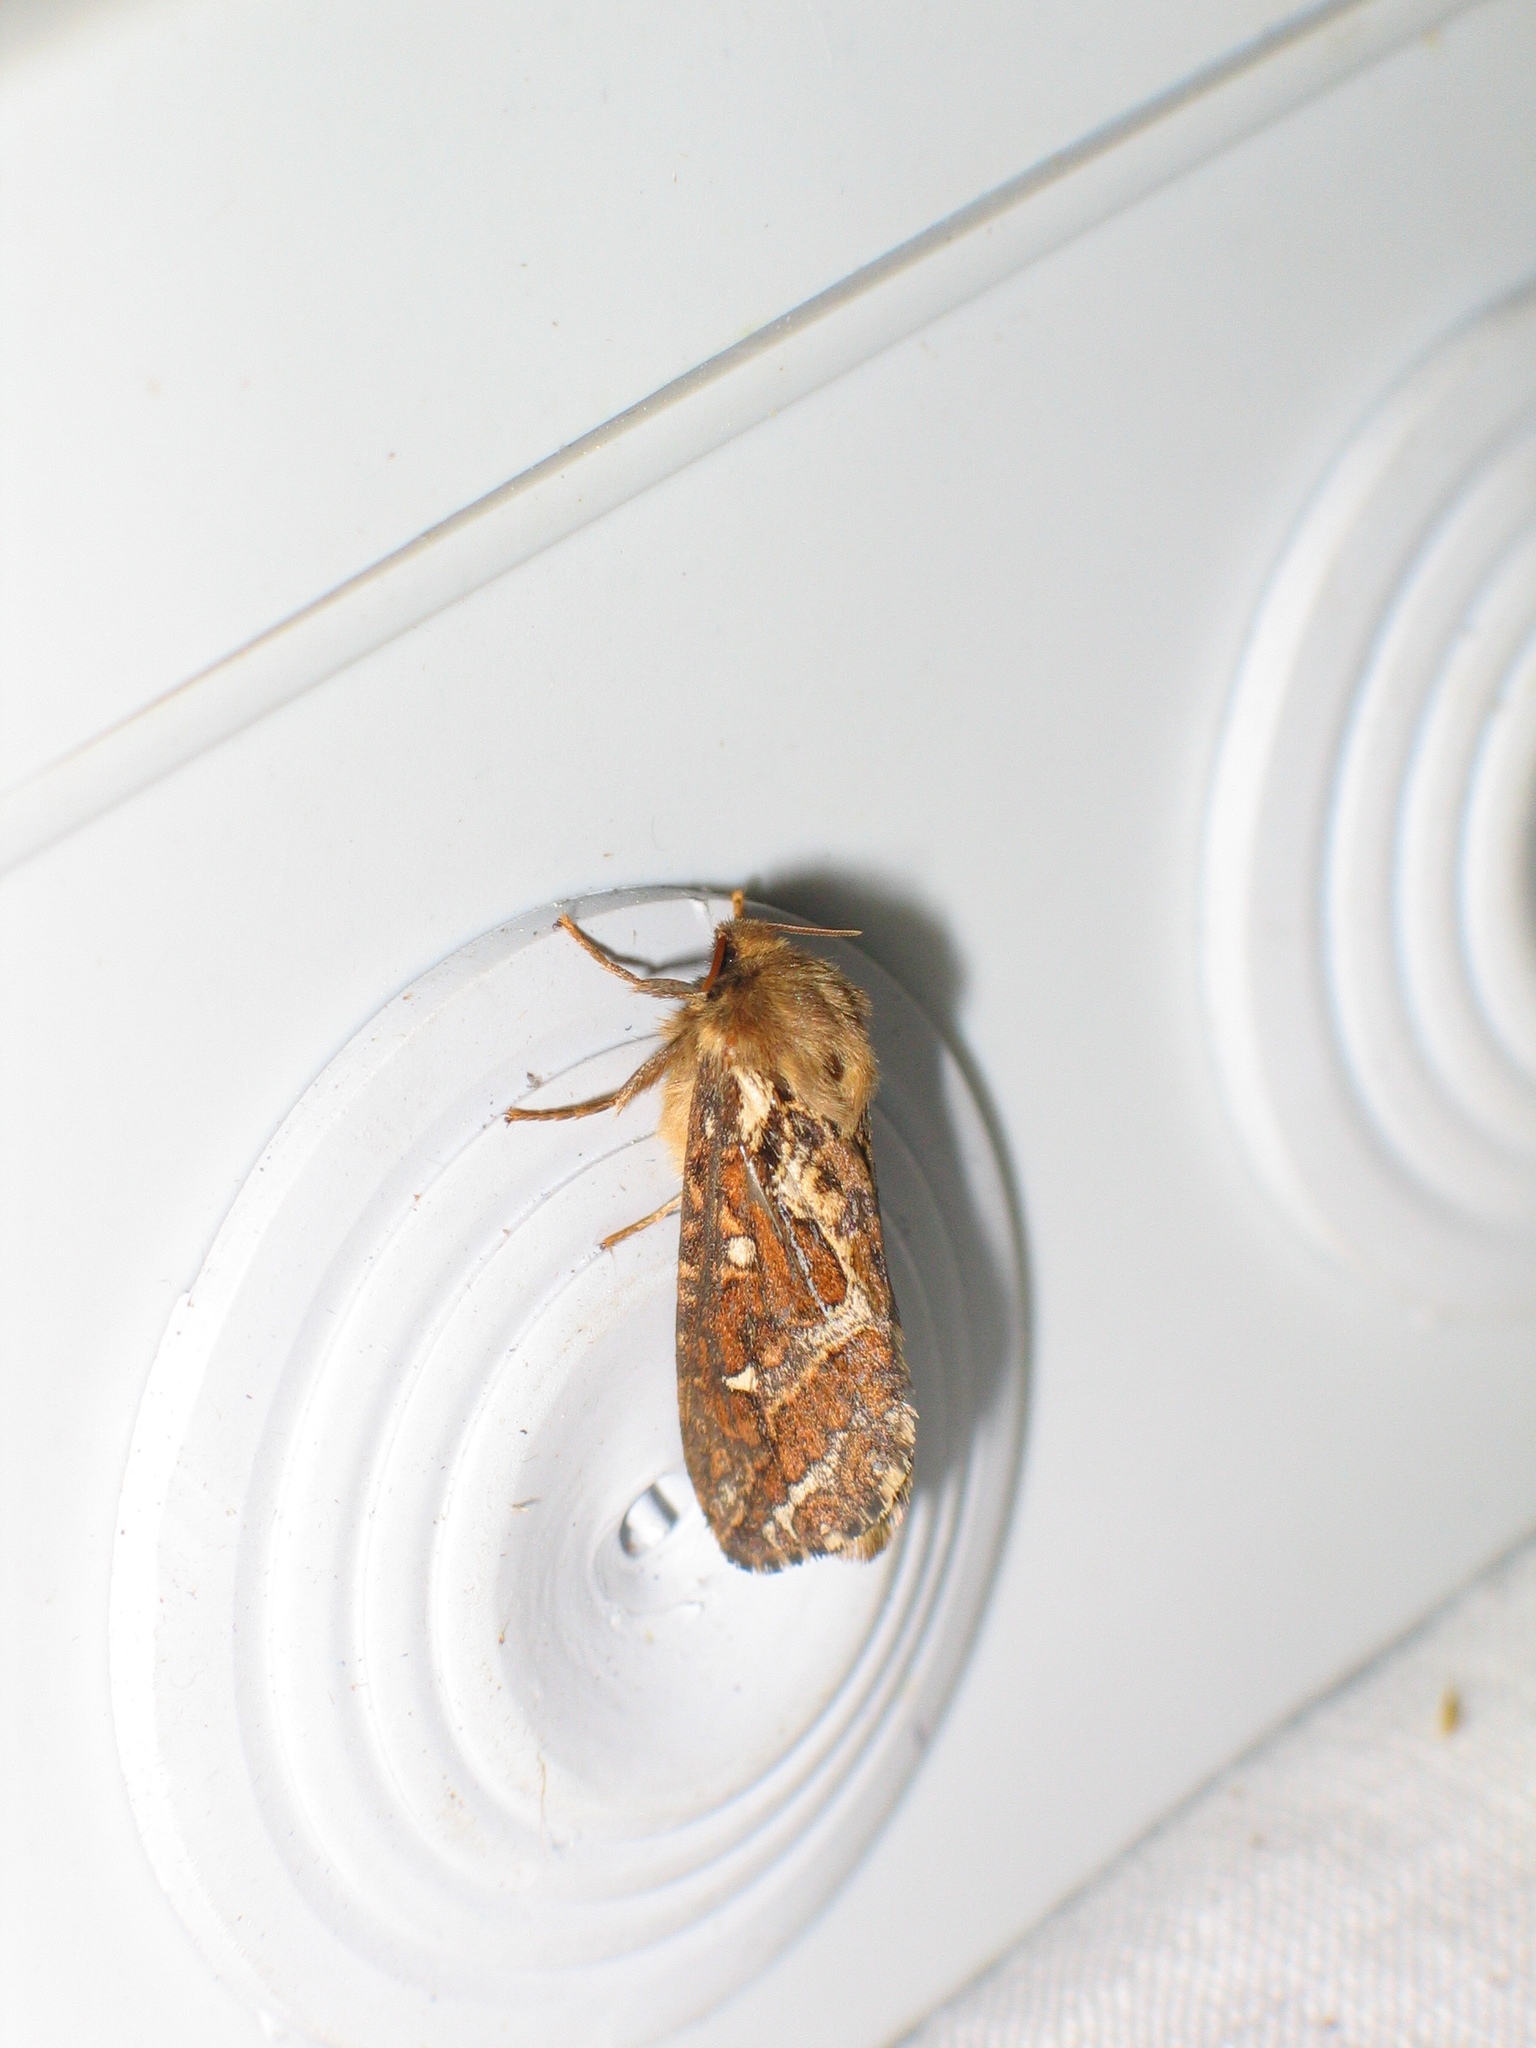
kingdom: Animalia
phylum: Arthropoda
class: Insecta
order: Lepidoptera
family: Hepialidae
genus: Korscheltellus
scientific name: Korscheltellus fusconebulosus
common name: Map-winged swift
